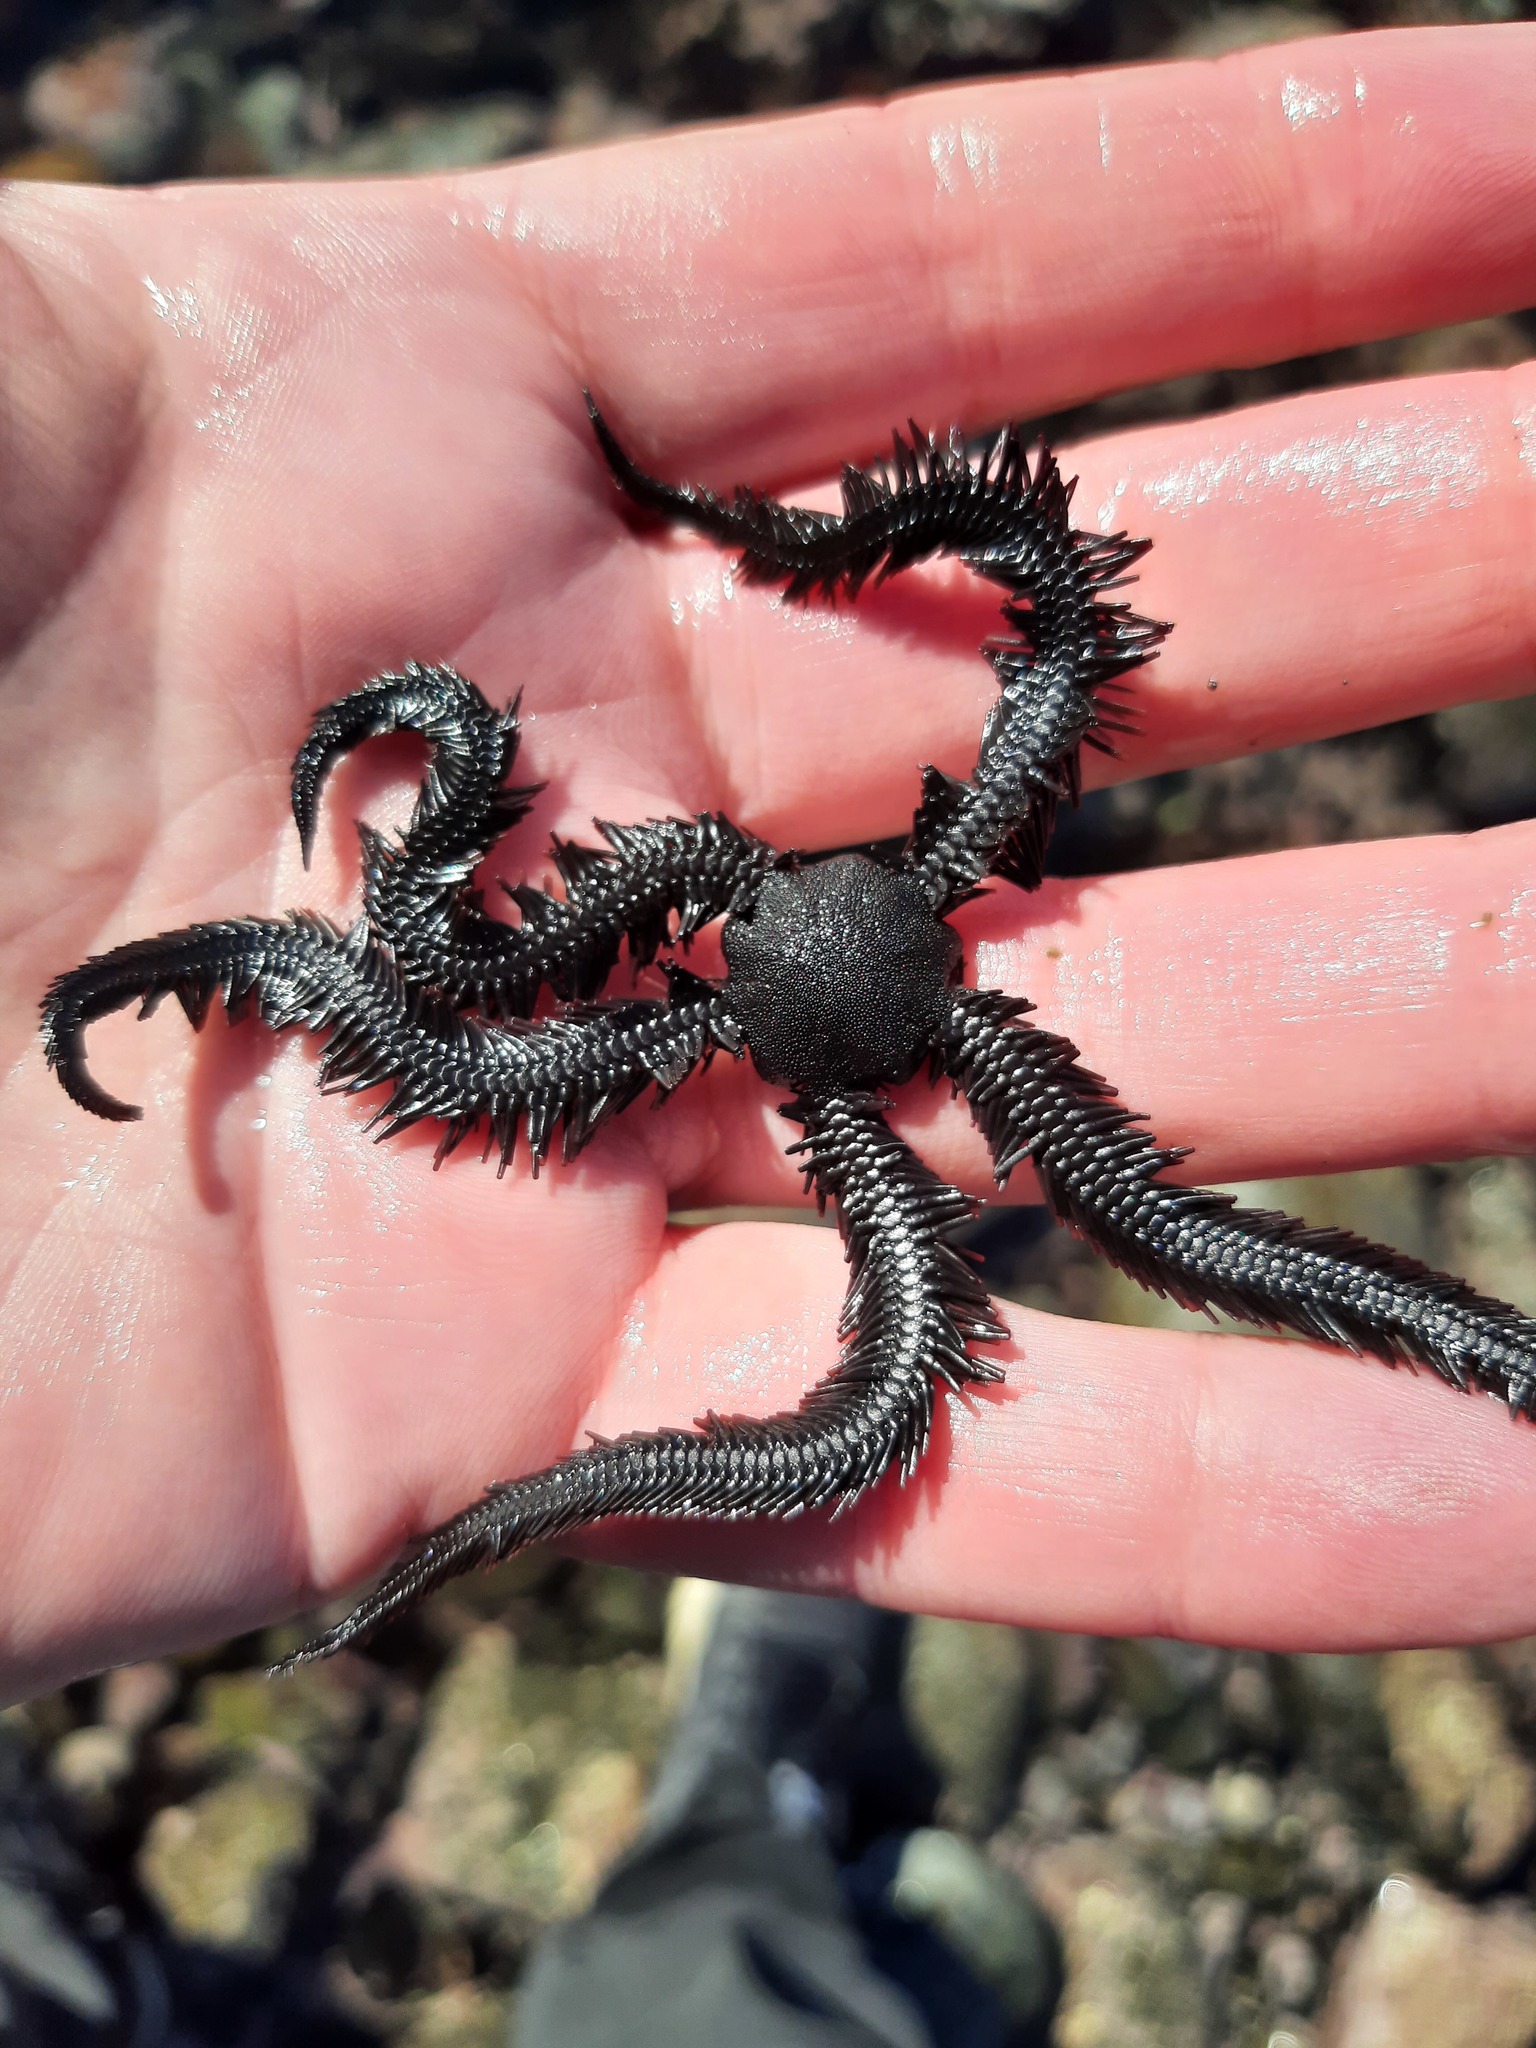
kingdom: Animalia
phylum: Echinodermata
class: Ophiuroidea
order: Ophiacanthida
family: Ophiopteridae
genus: Ophiopteris
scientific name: Ophiopteris antipodum
